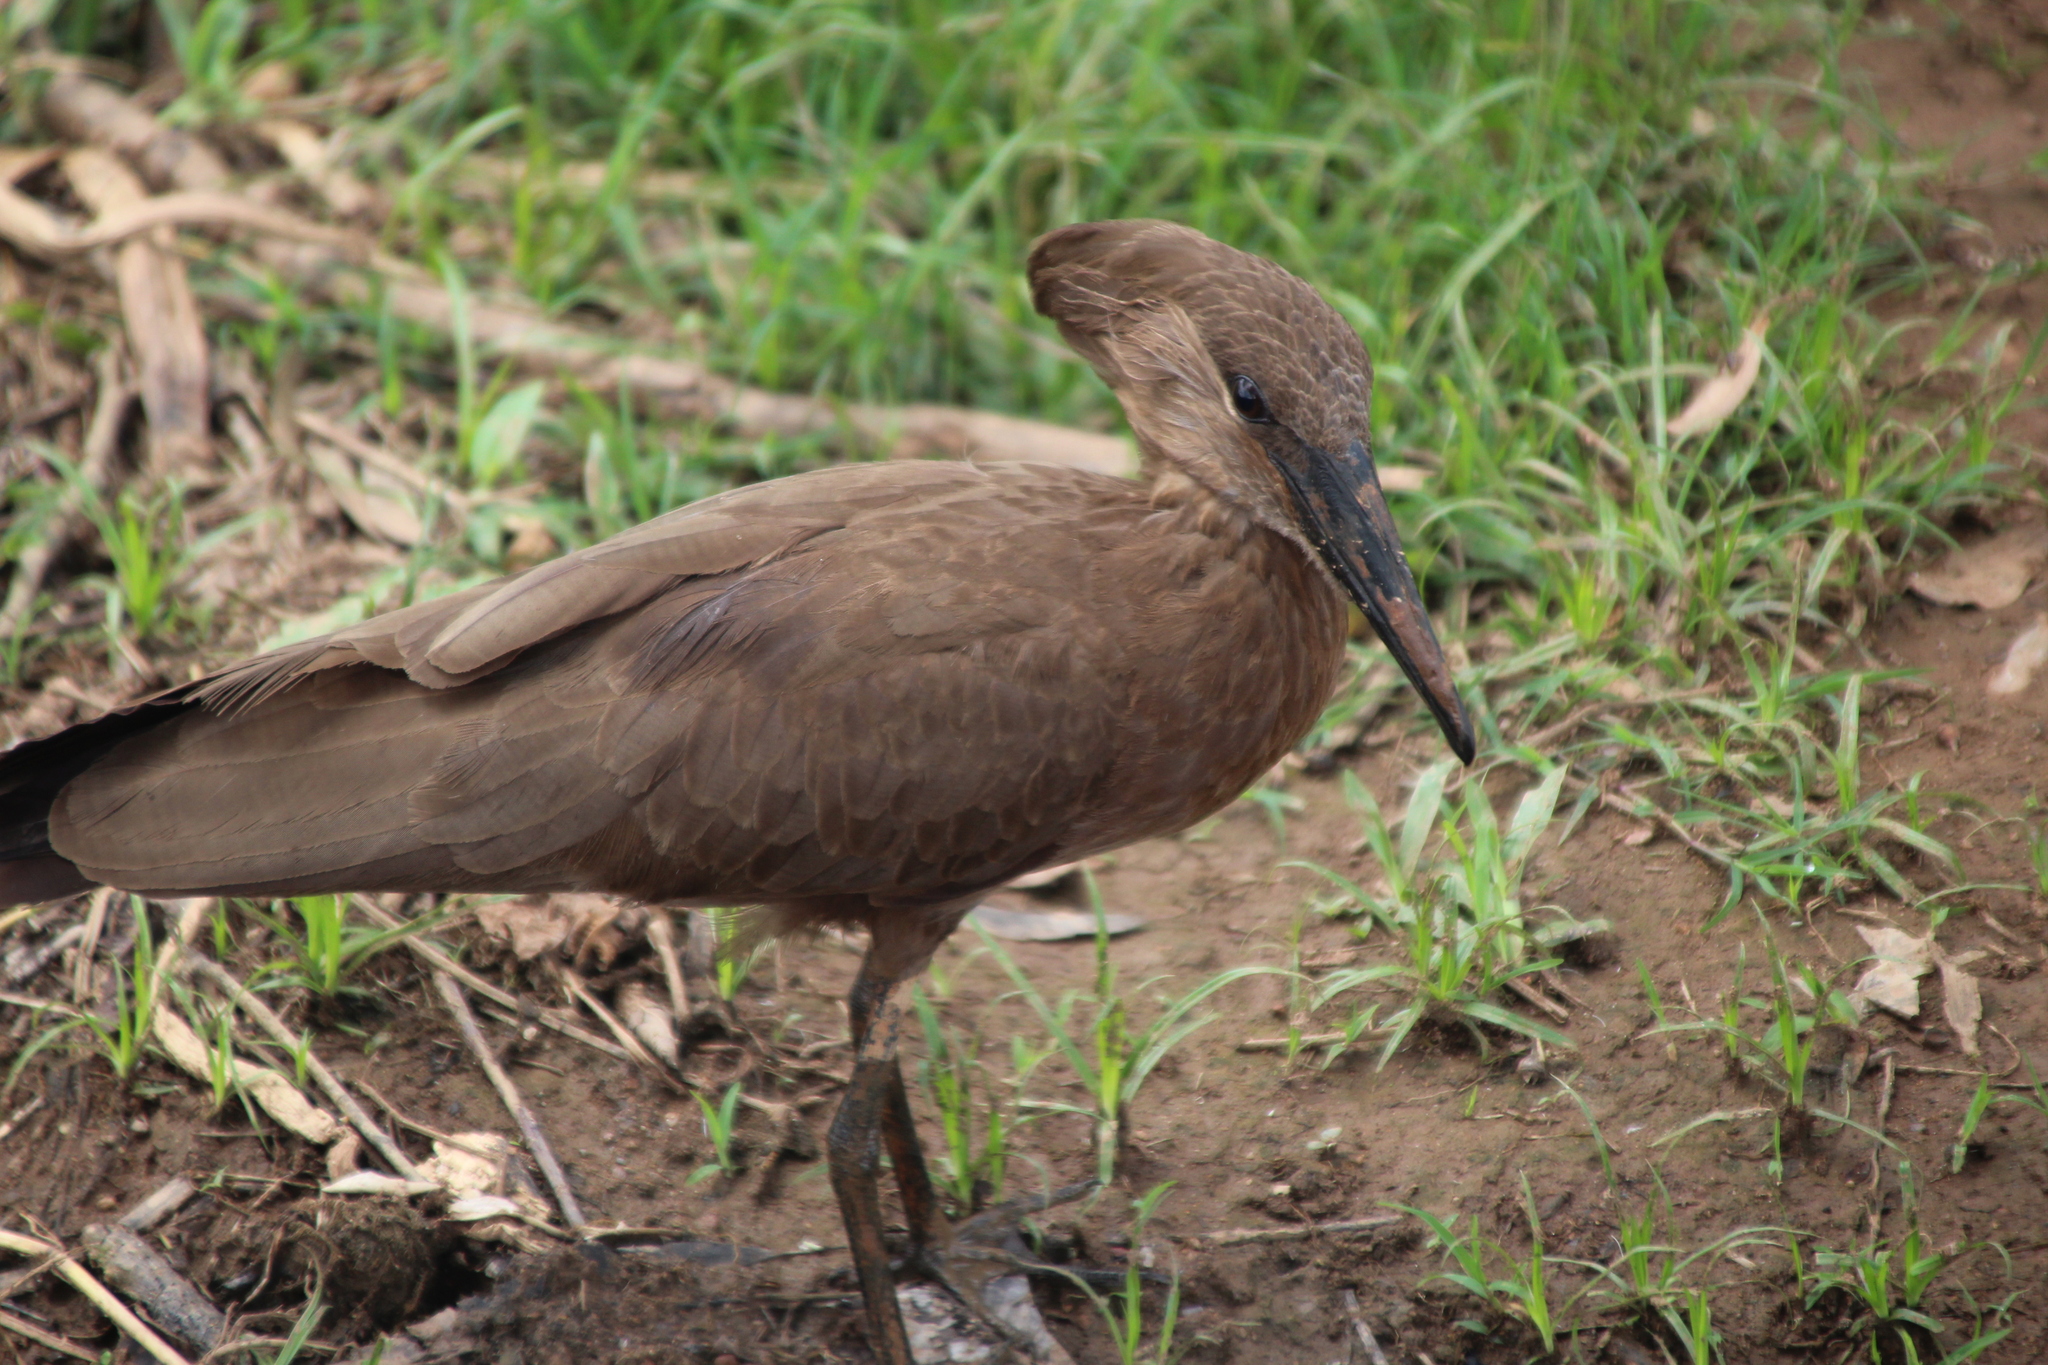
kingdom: Animalia
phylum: Chordata
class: Aves
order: Pelecaniformes
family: Scopidae
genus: Scopus
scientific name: Scopus umbretta
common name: Hamerkop
